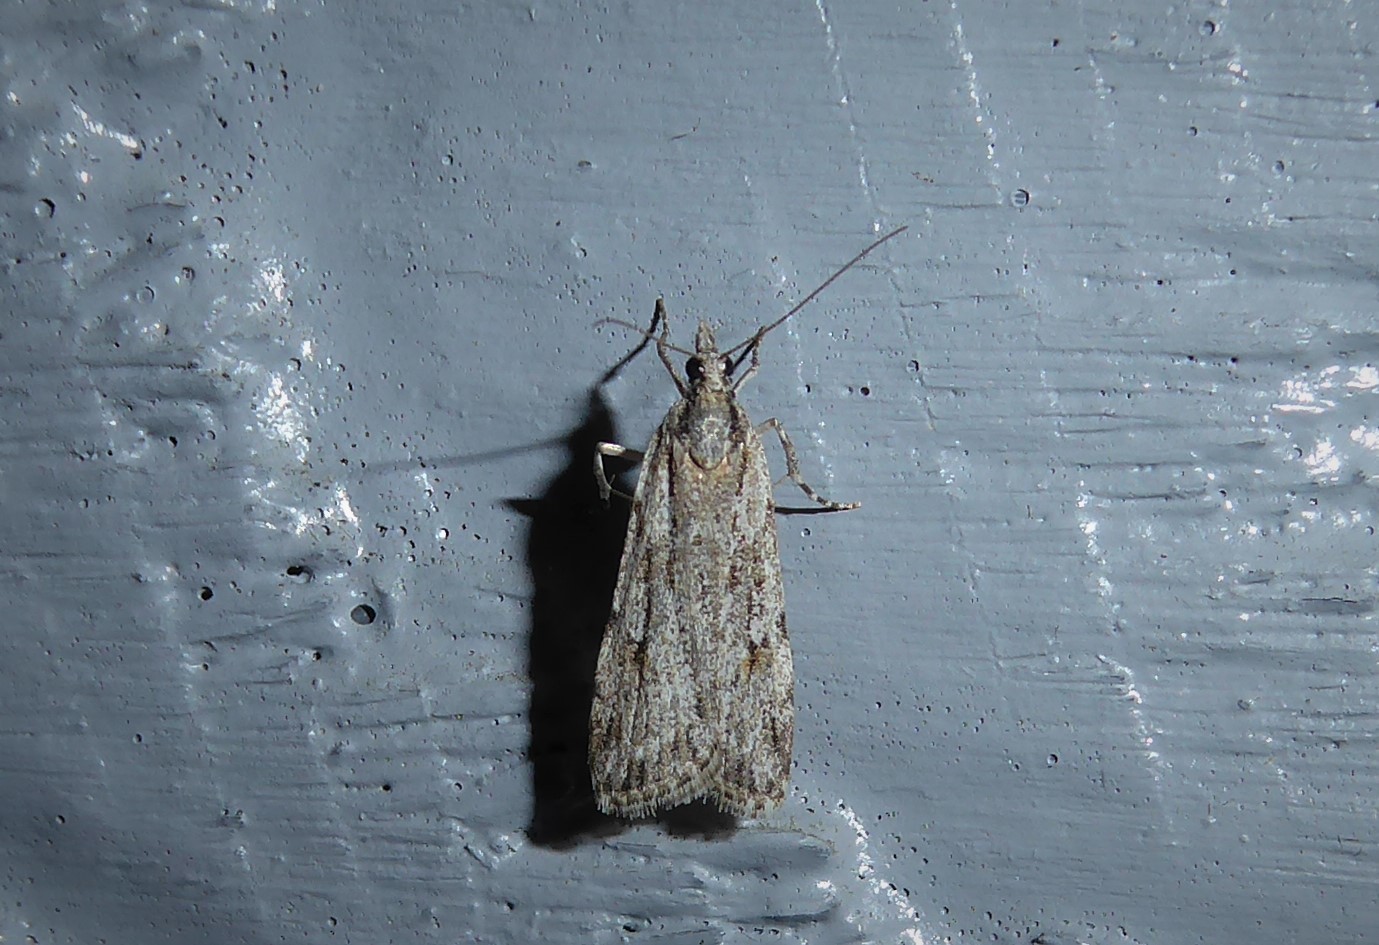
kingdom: Animalia
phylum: Arthropoda
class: Insecta
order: Lepidoptera
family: Crambidae
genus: Scoparia
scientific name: Scoparia chalicodes
